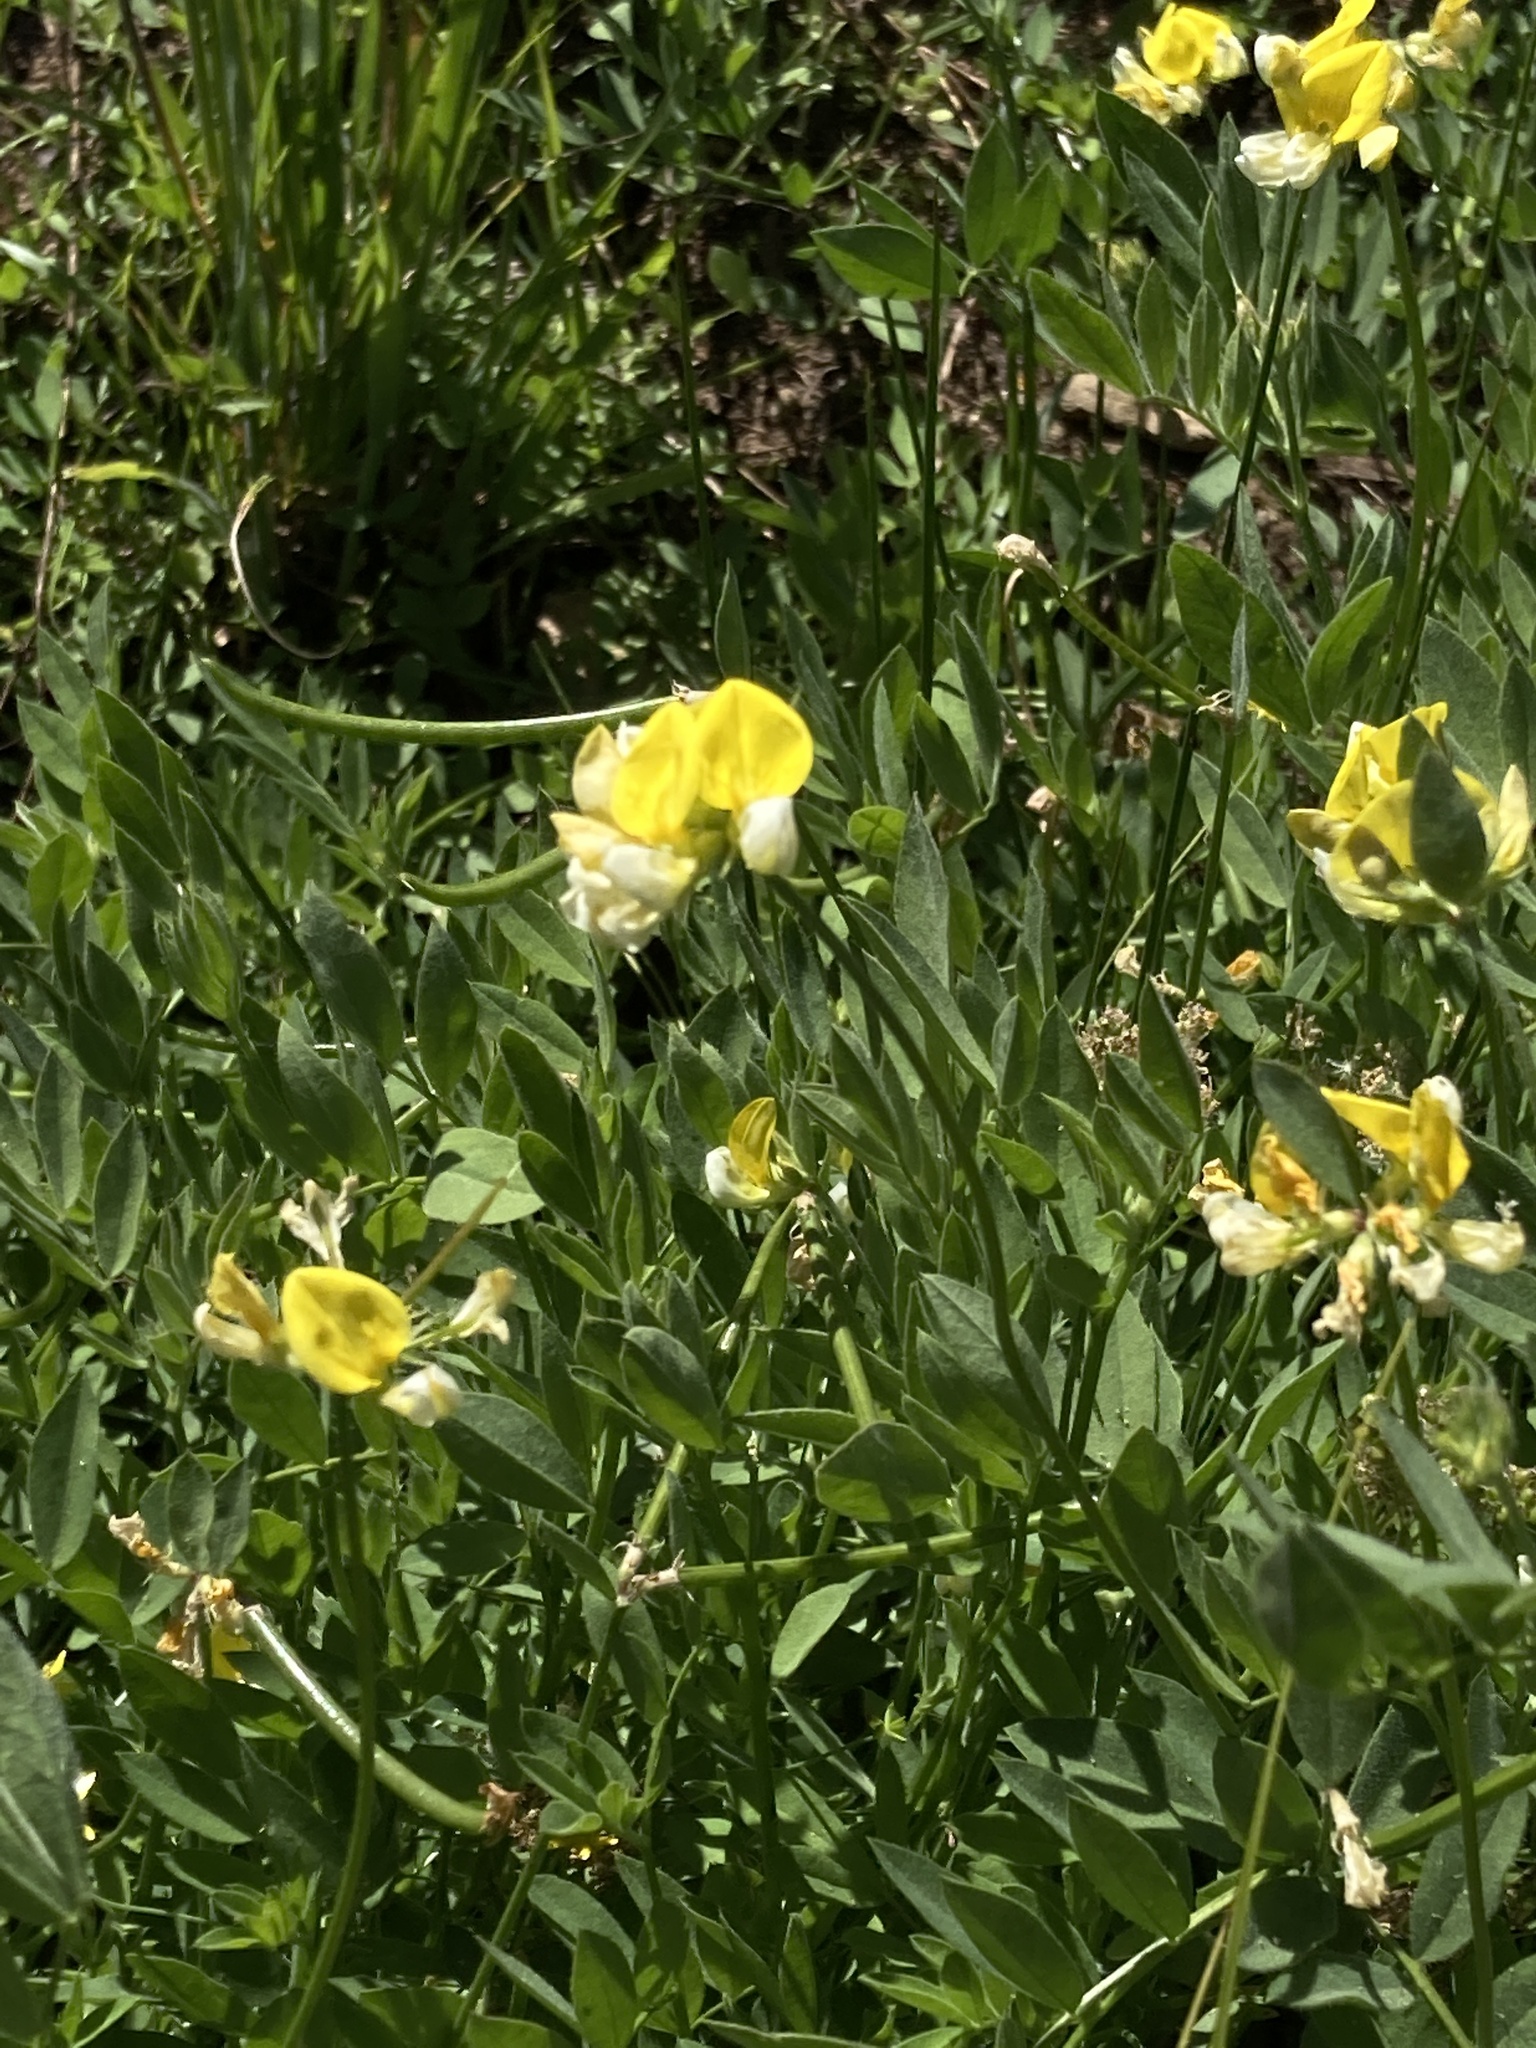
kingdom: Plantae
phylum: Tracheophyta
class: Magnoliopsida
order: Fabales
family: Fabaceae
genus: Hosackia
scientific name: Hosackia oblongifolia
